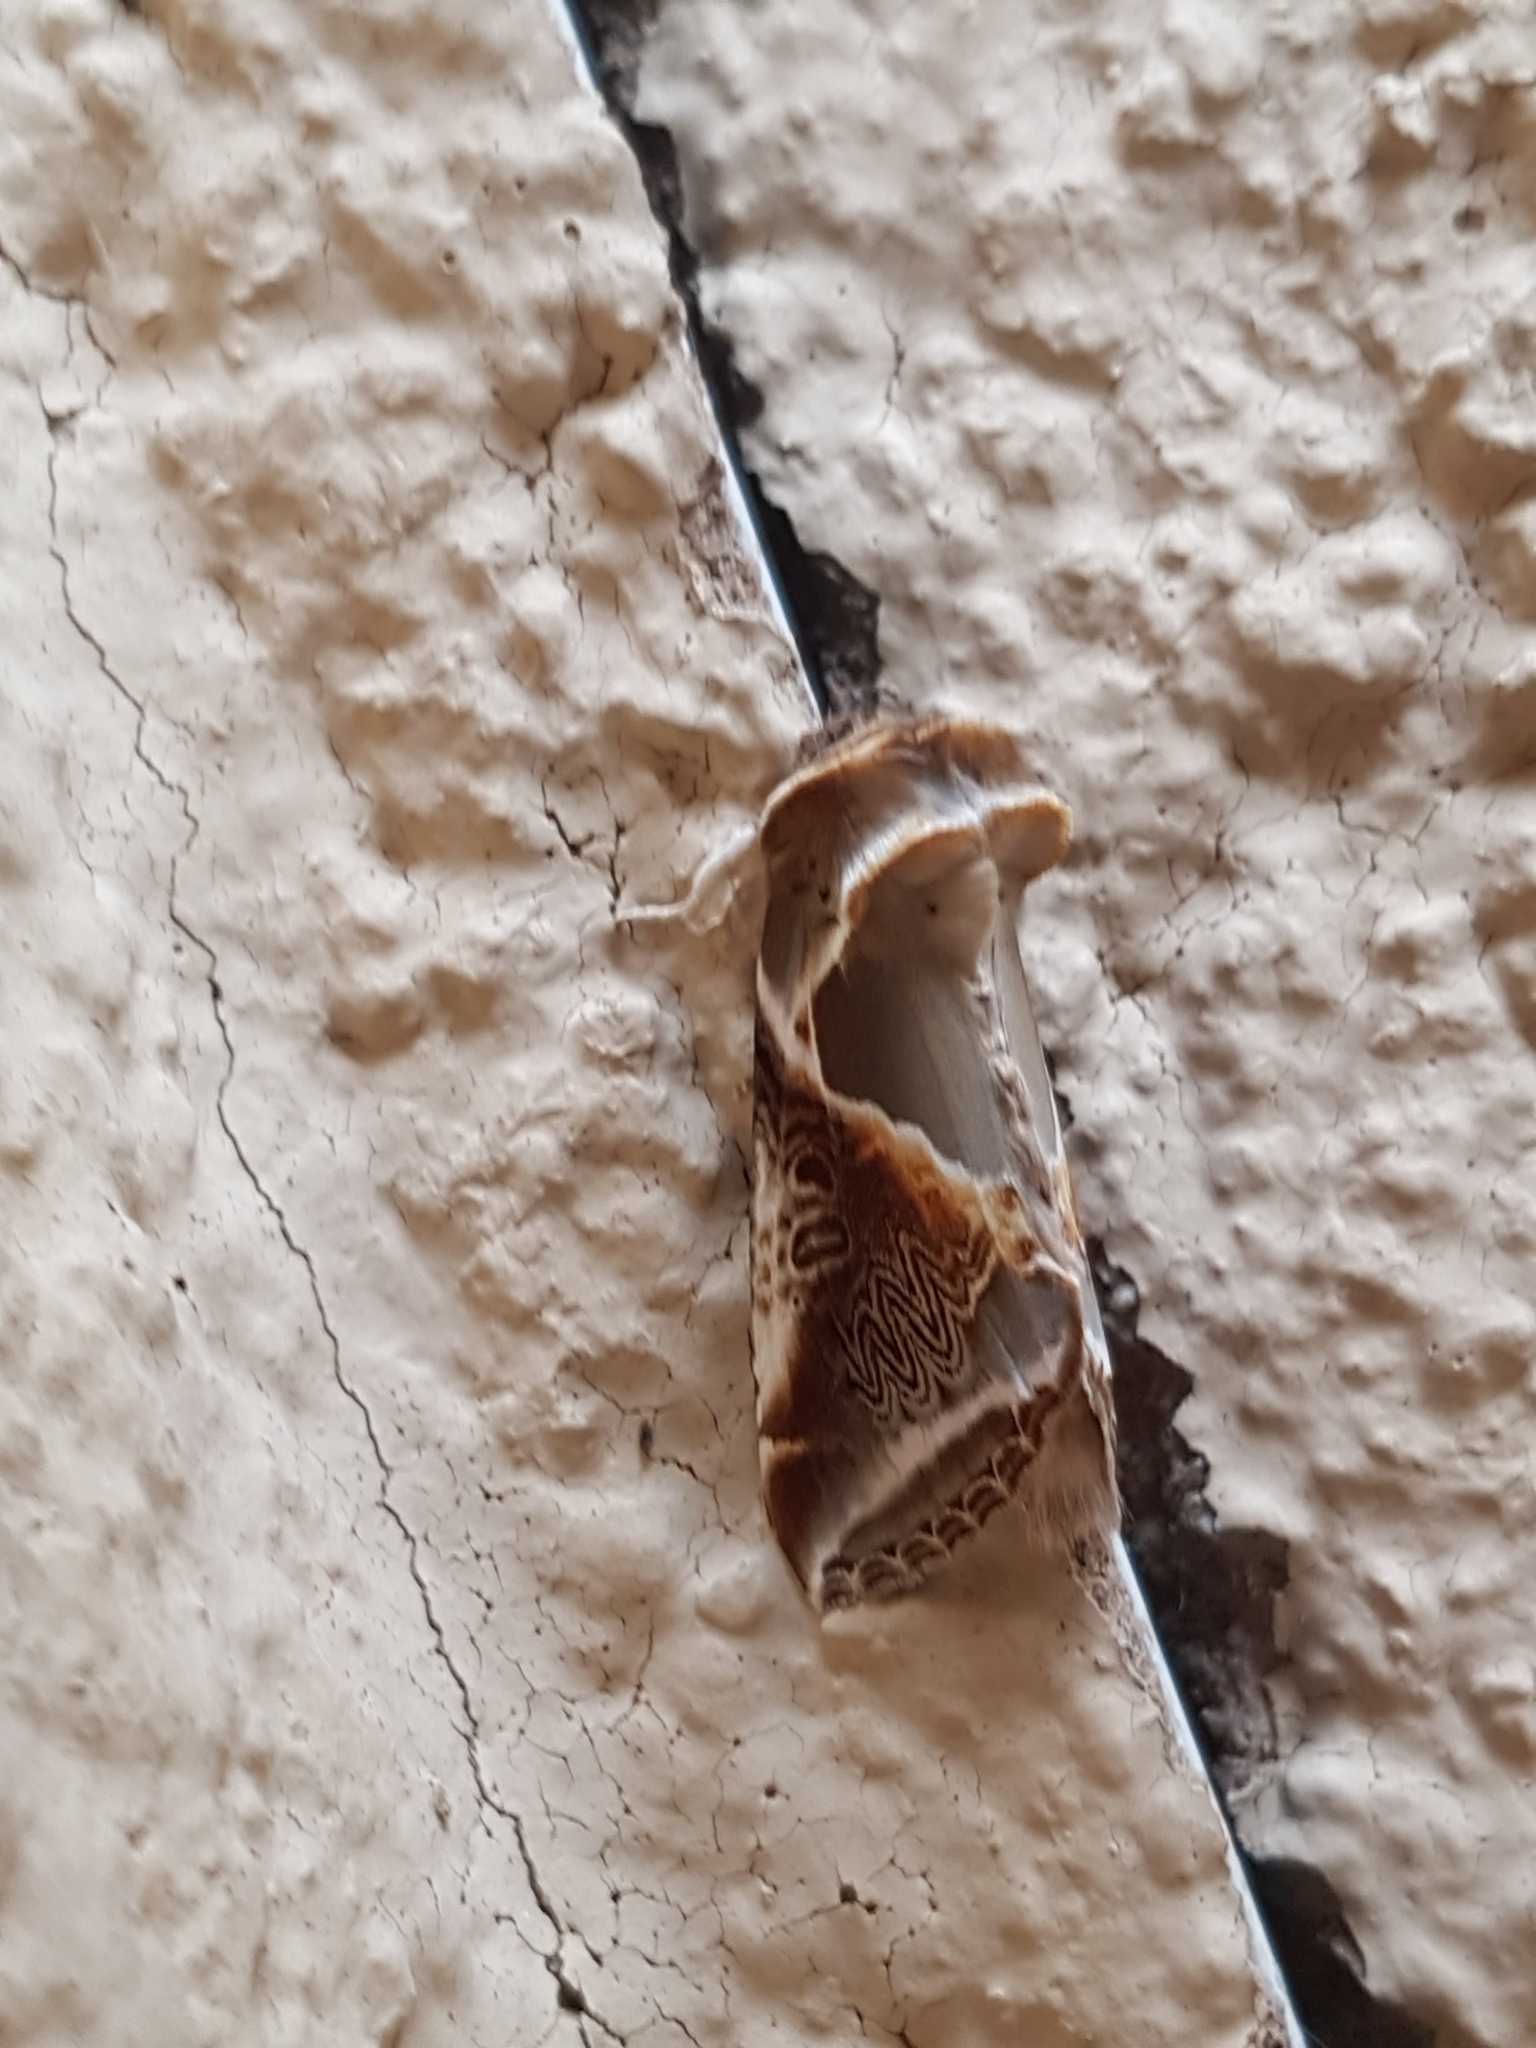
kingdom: Animalia
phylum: Arthropoda
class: Insecta
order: Lepidoptera
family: Drepanidae
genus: Habrosyne
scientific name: Habrosyne pyritoides
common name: Buff arches
